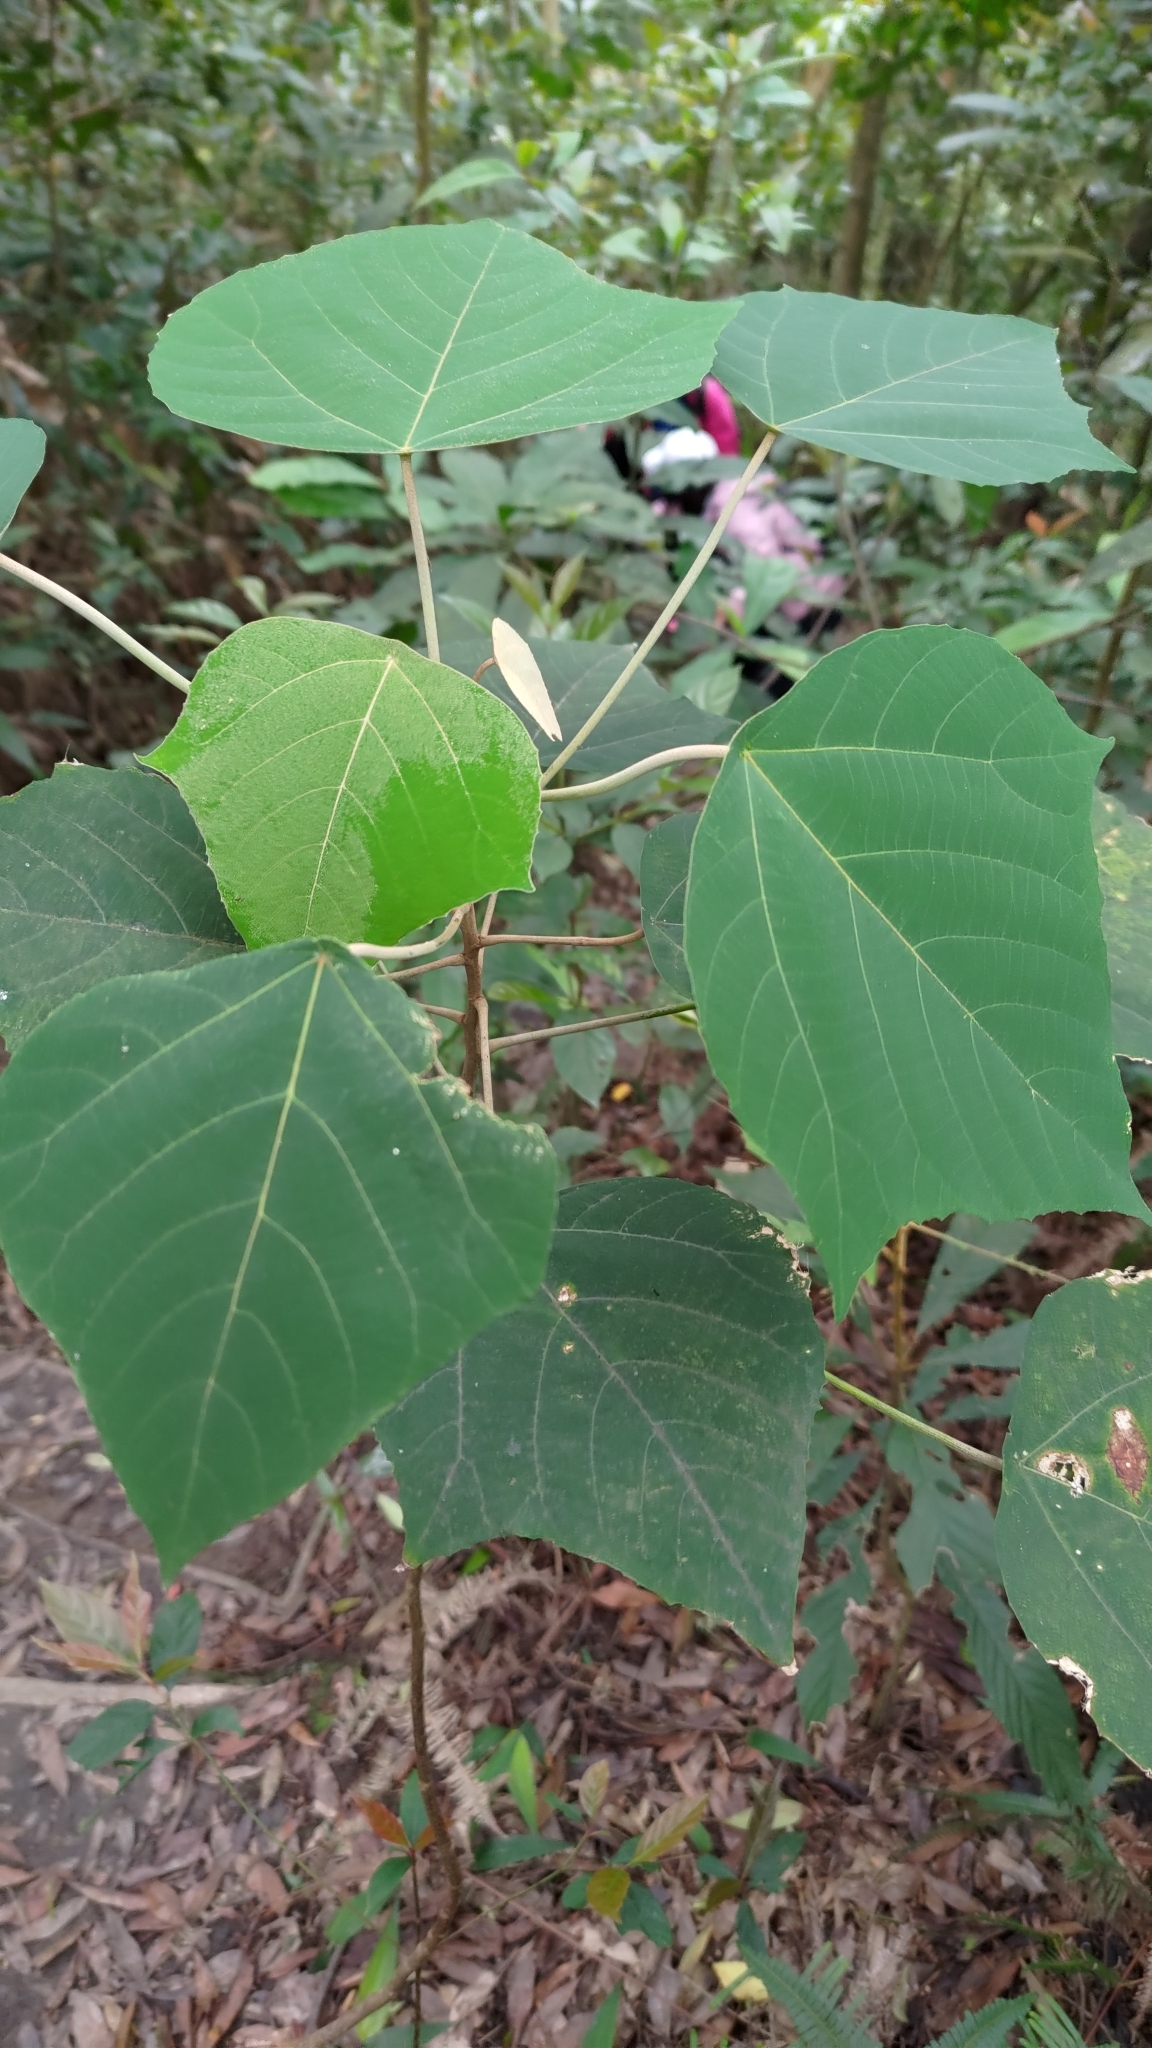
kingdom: Plantae
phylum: Tracheophyta
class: Magnoliopsida
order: Malpighiales
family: Euphorbiaceae
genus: Mallotus
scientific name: Mallotus paniculatus
